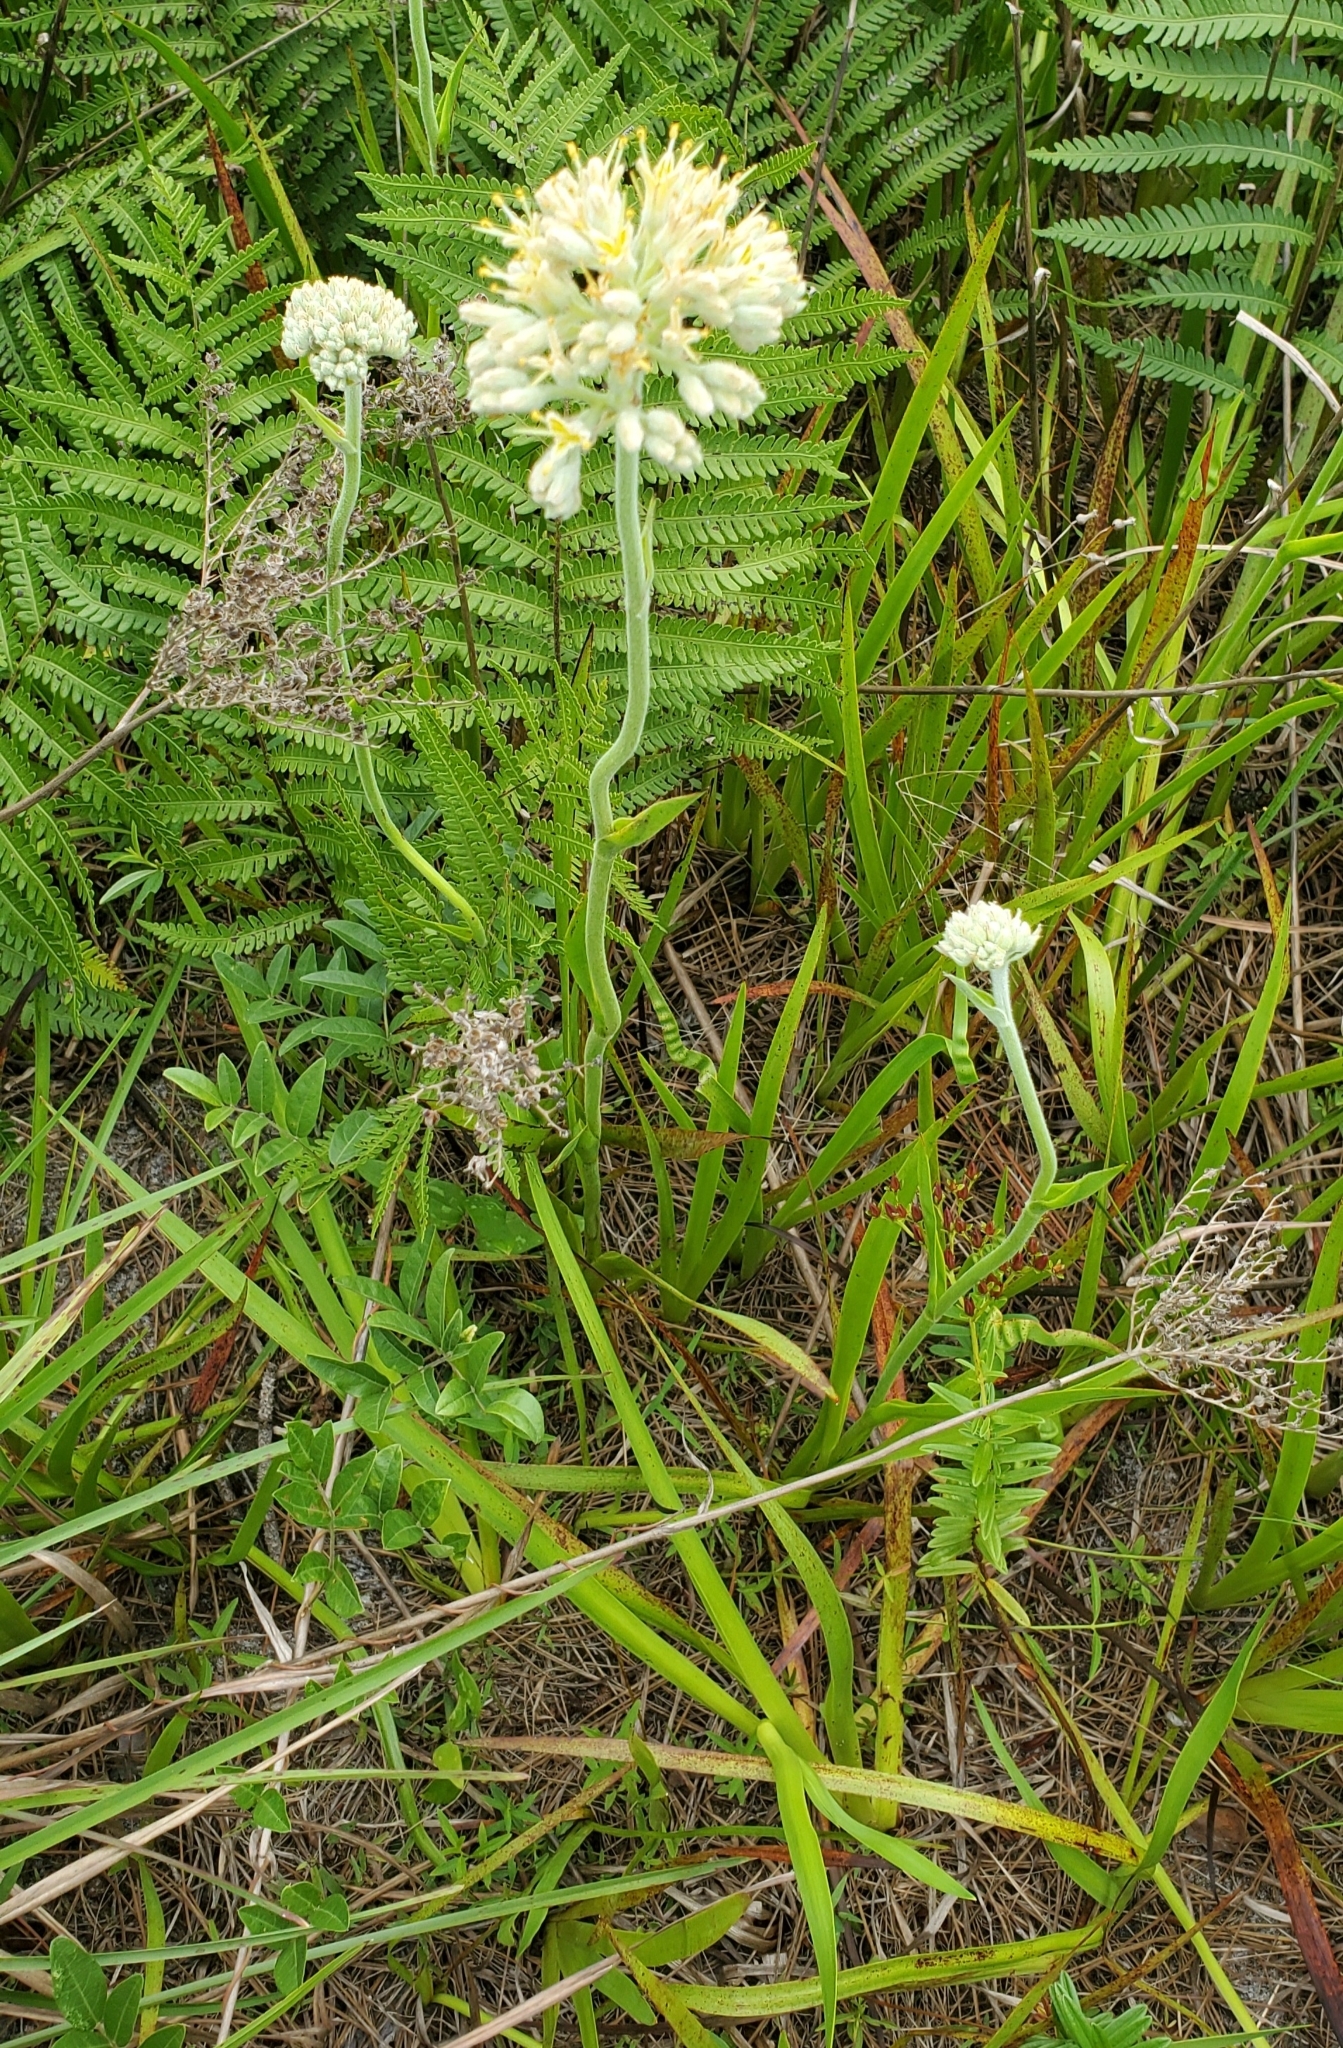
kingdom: Plantae
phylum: Tracheophyta
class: Liliopsida
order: Commelinales
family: Haemodoraceae
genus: Lachnanthes
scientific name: Lachnanthes caroliana
